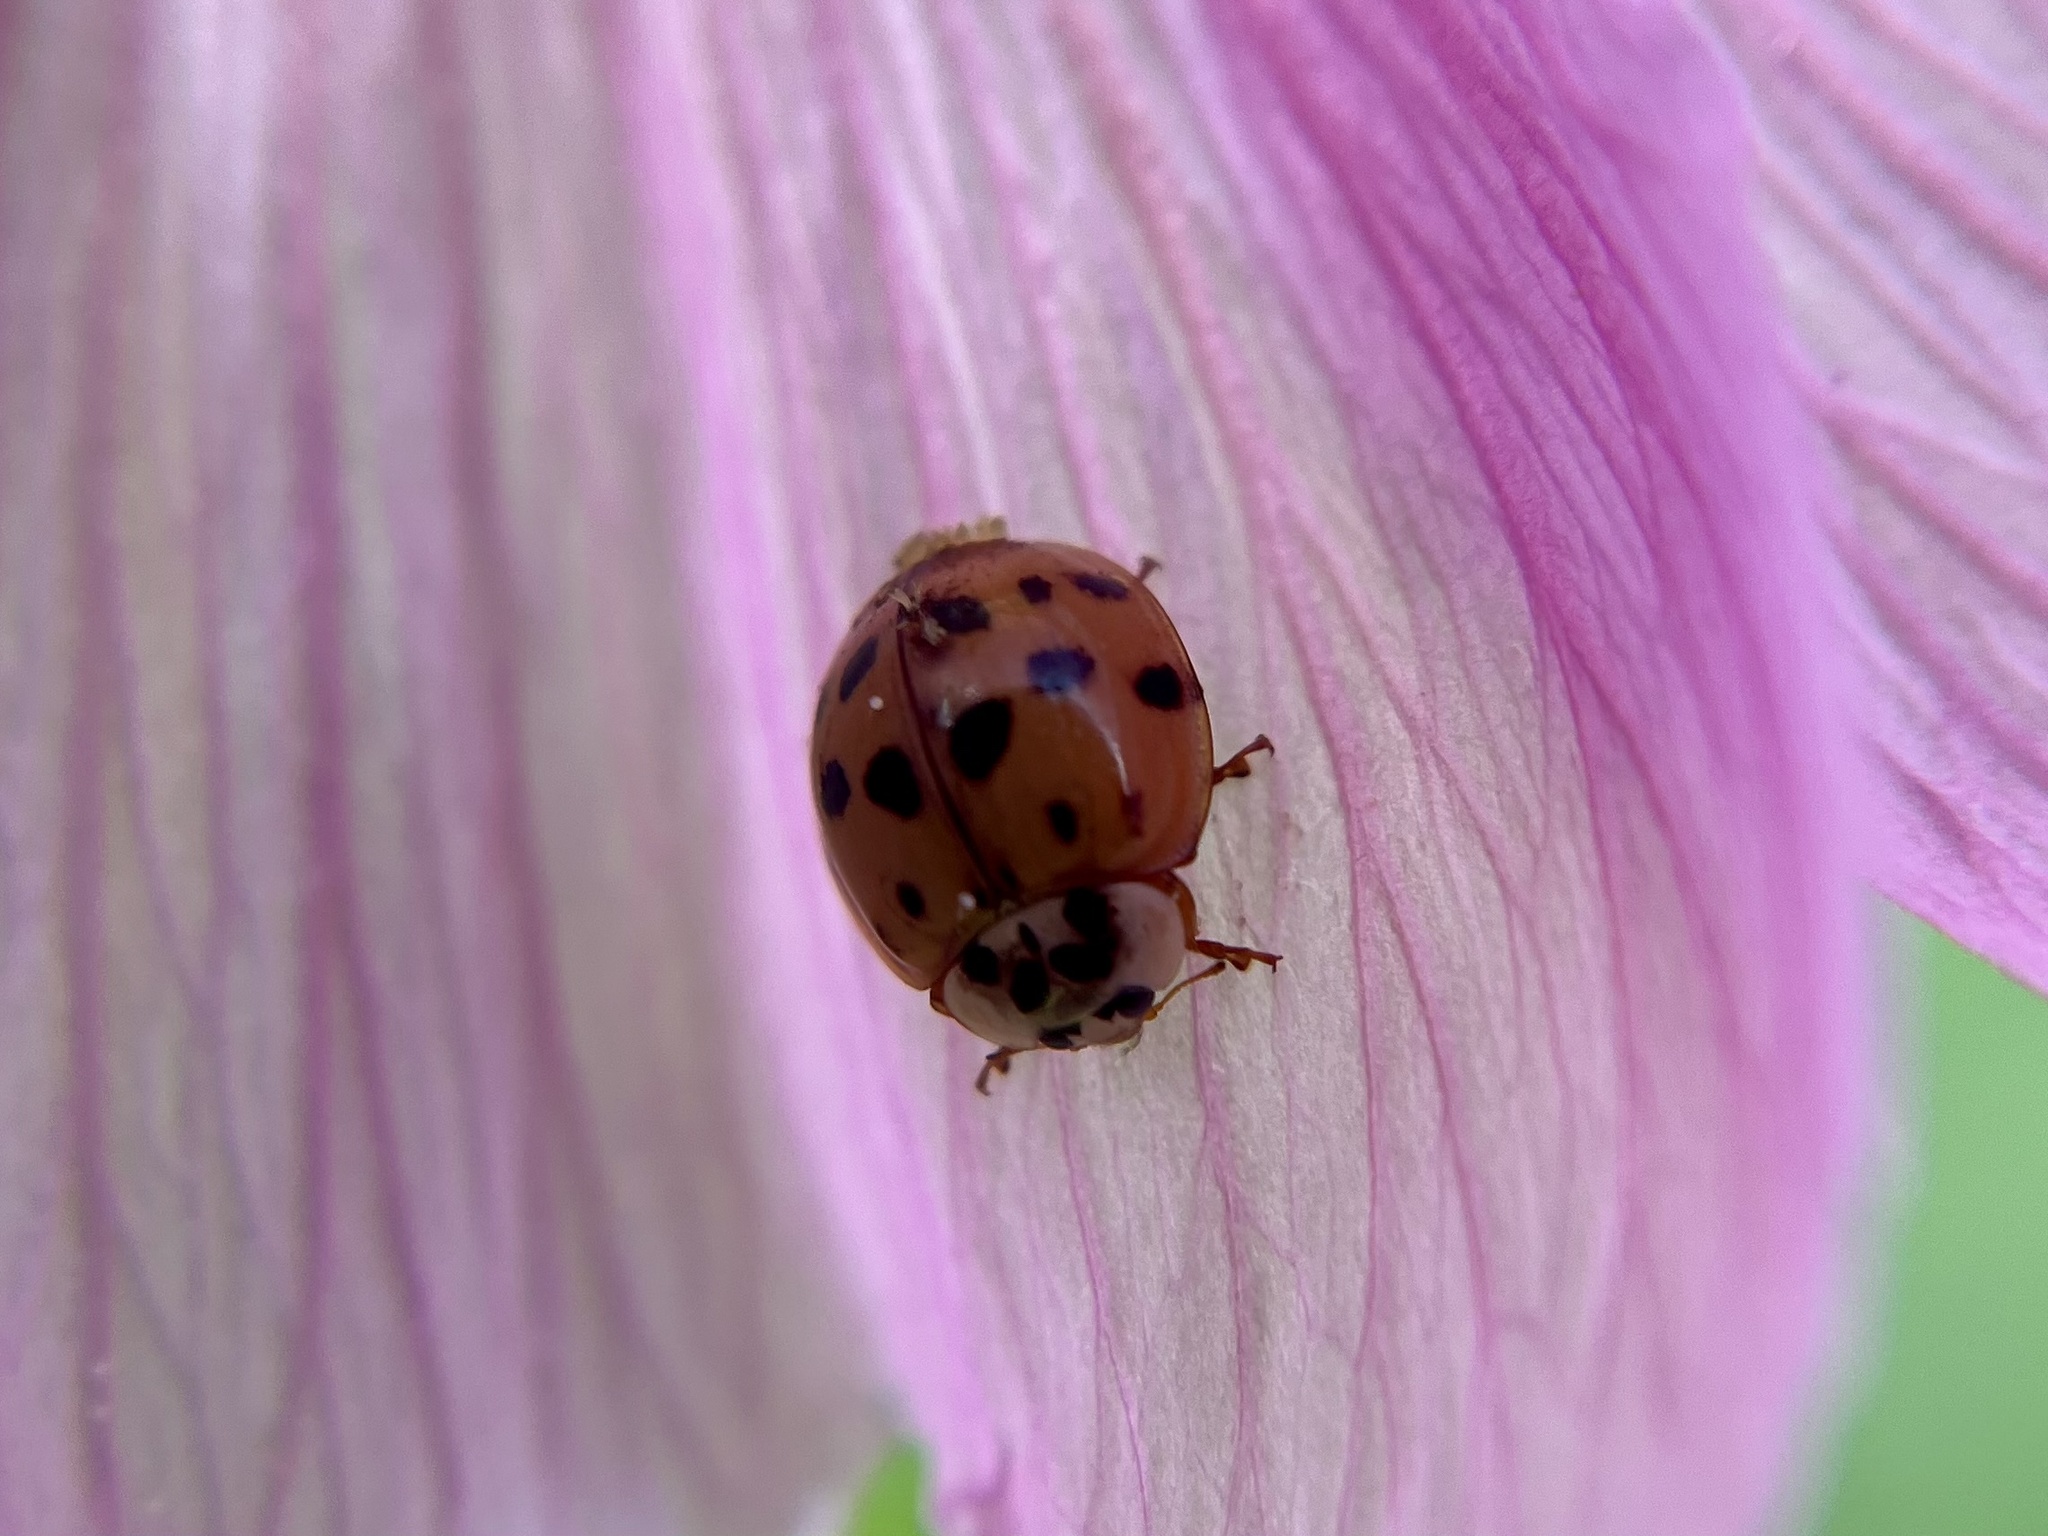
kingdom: Animalia
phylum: Arthropoda
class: Insecta
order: Coleoptera
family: Coccinellidae
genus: Harmonia
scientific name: Harmonia axyridis
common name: Harlequin ladybird
